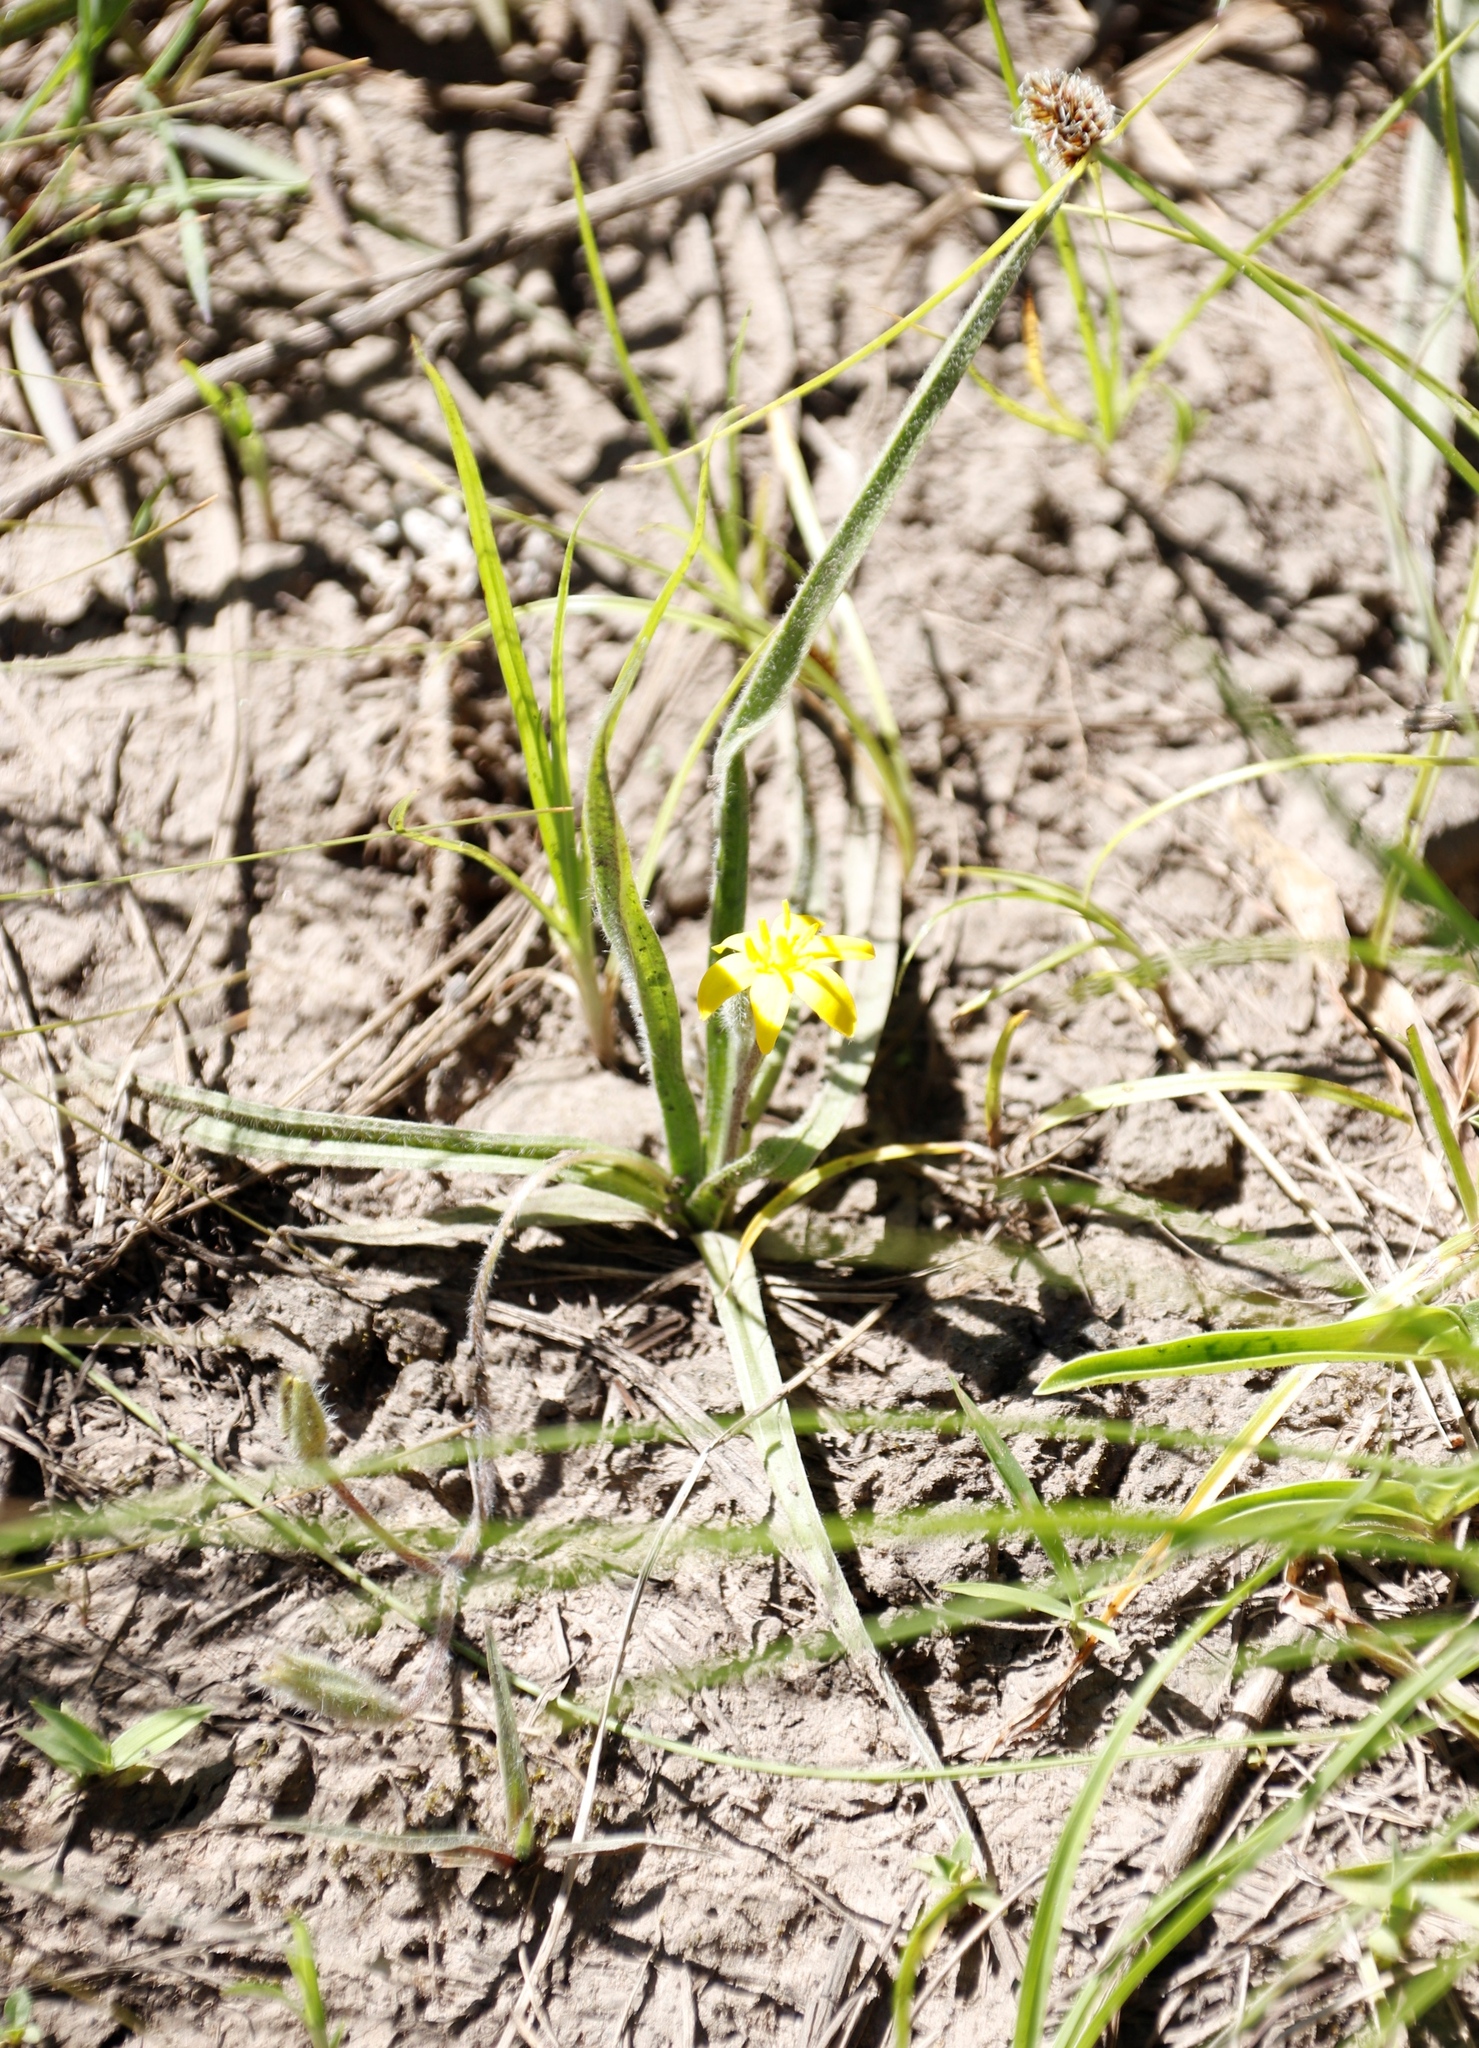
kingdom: Plantae
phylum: Tracheophyta
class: Liliopsida
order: Asparagales
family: Hypoxidaceae
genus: Hypoxis
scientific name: Hypoxis argentea
